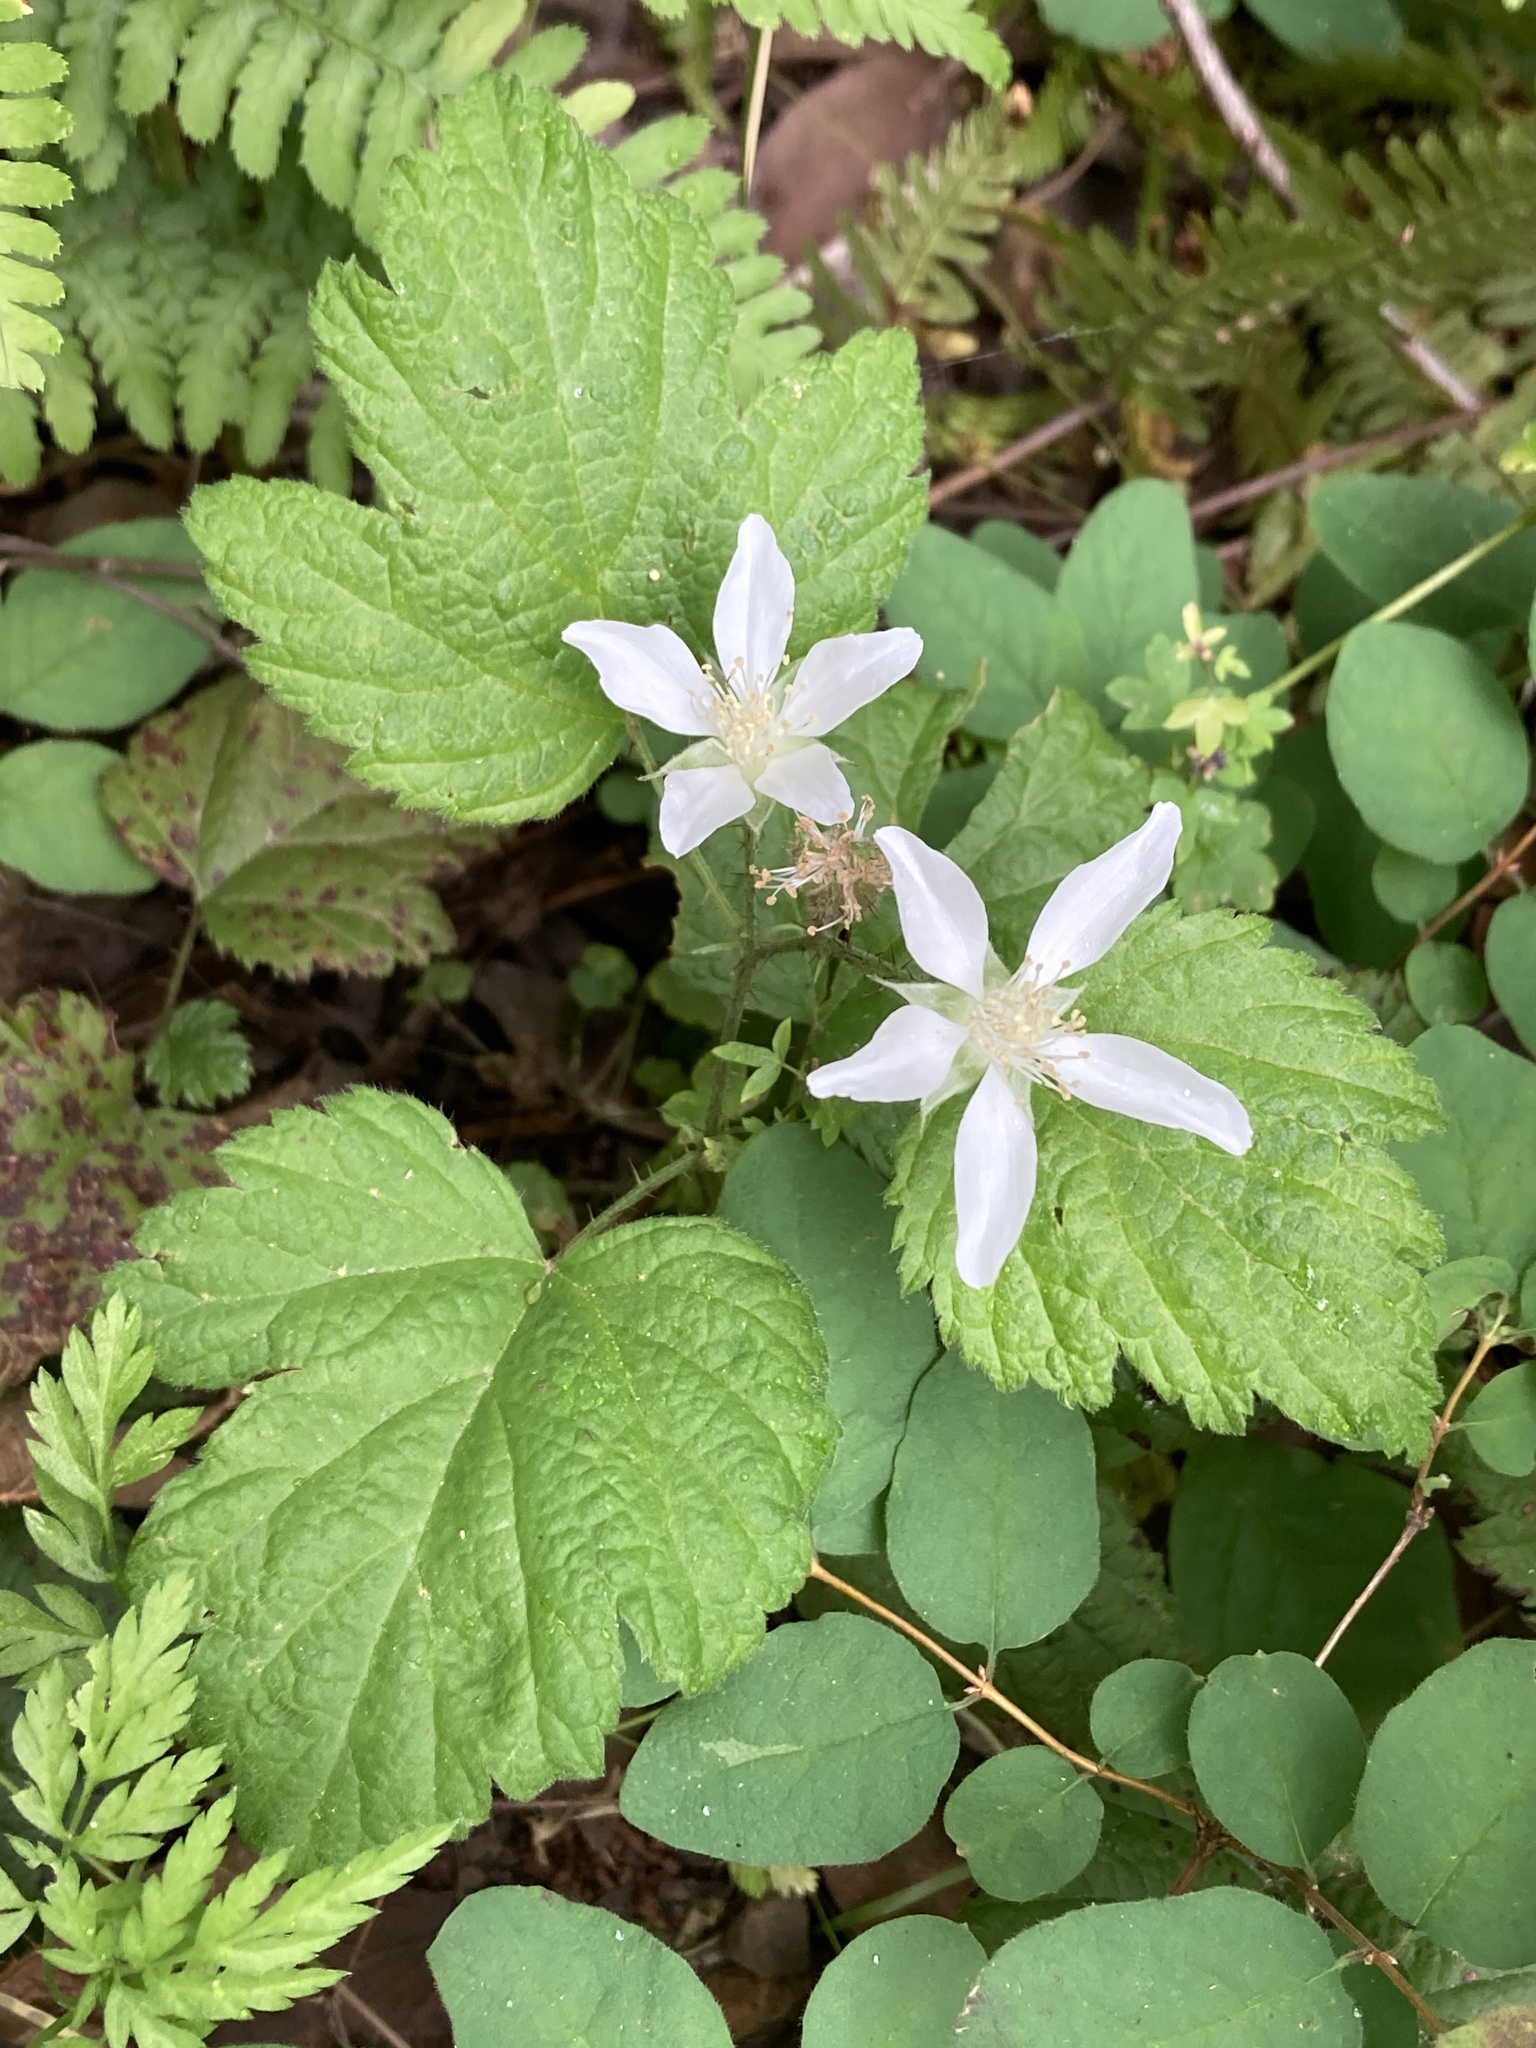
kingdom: Plantae
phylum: Tracheophyta
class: Magnoliopsida
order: Rosales
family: Rosaceae
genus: Rubus
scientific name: Rubus ursinus
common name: Pacific blackberry
